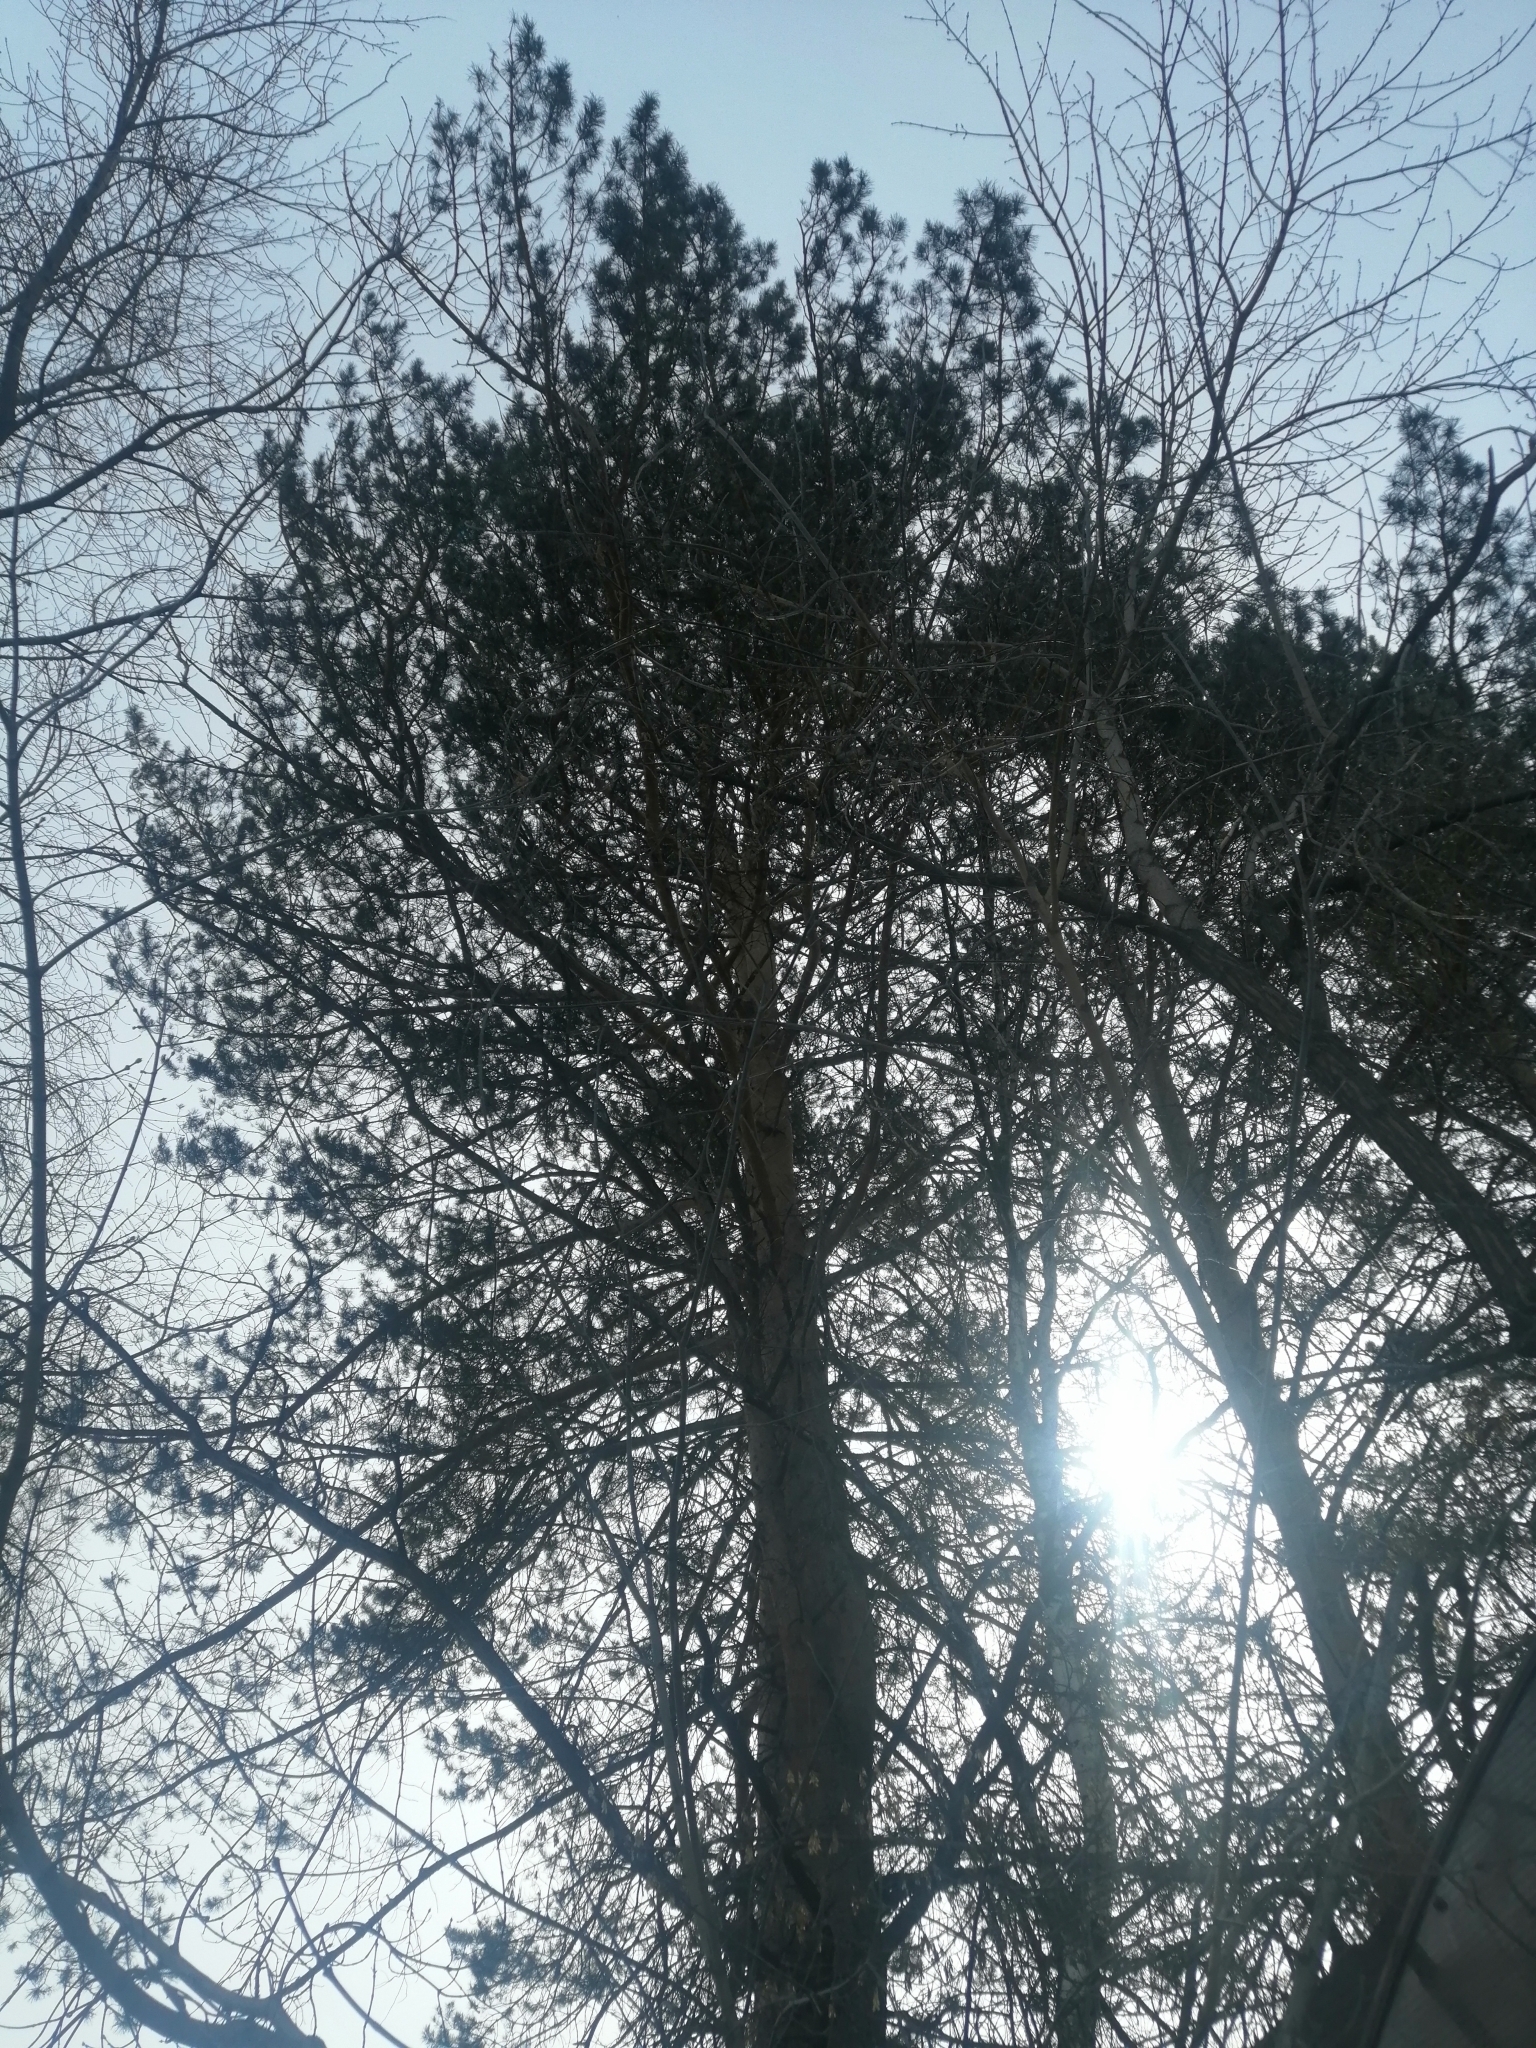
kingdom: Plantae
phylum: Tracheophyta
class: Pinopsida
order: Pinales
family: Pinaceae
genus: Pinus
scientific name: Pinus sylvestris
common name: Scots pine
